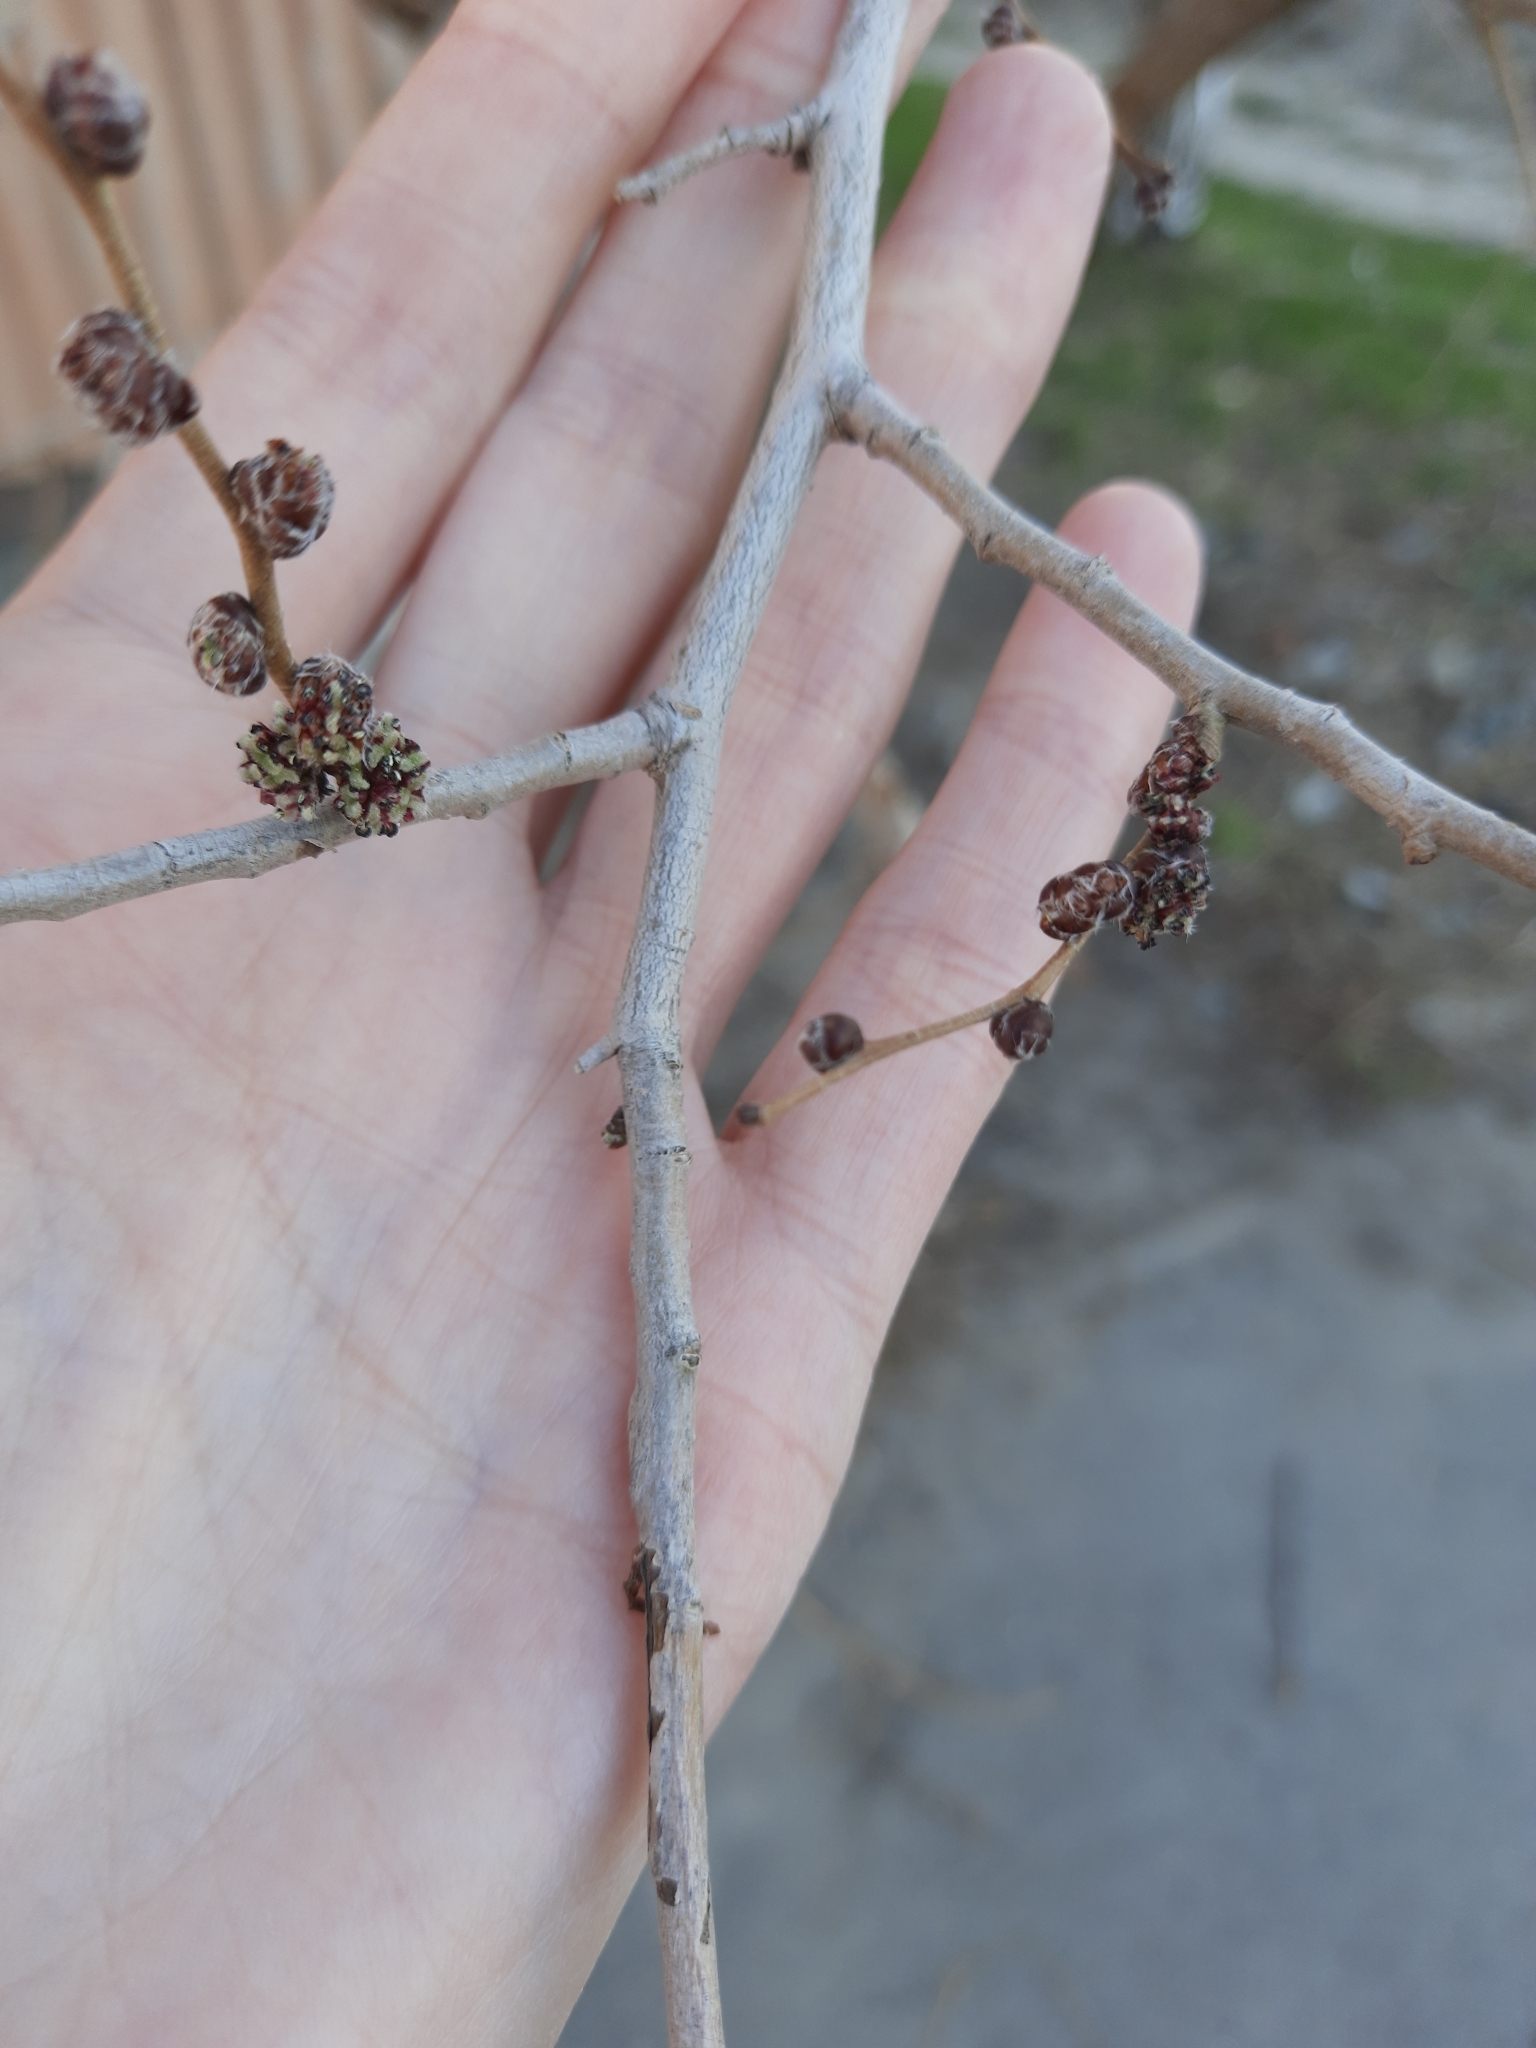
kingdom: Plantae
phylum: Tracheophyta
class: Magnoliopsida
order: Rosales
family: Ulmaceae
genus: Ulmus
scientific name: Ulmus pumila
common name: Siberian elm
